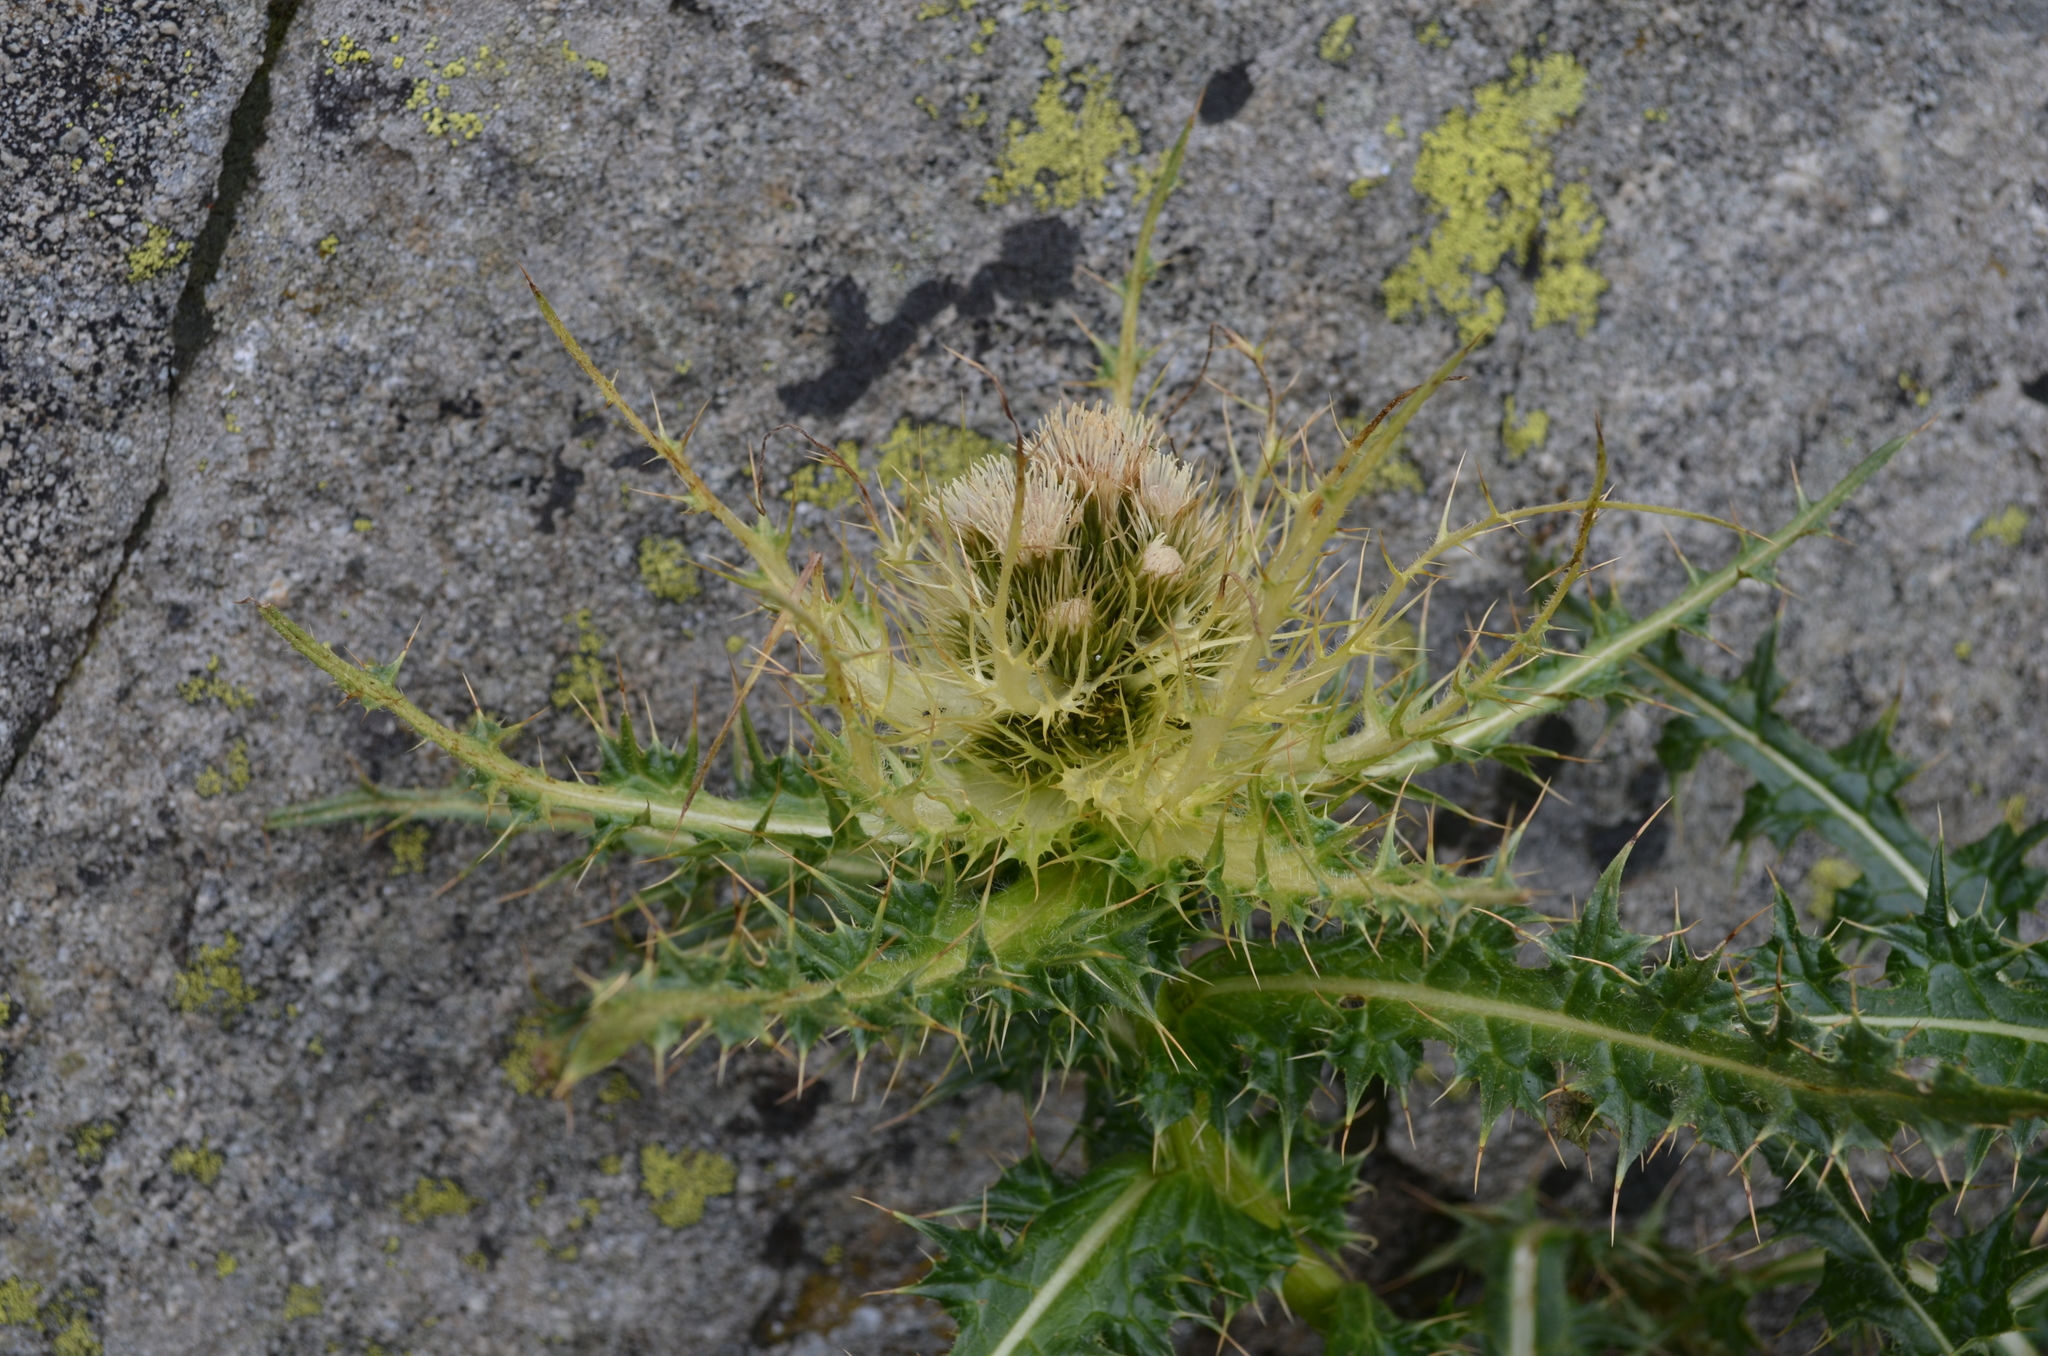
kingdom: Plantae
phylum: Tracheophyta
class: Magnoliopsida
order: Asterales
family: Asteraceae
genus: Cirsium
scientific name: Cirsium spinosissimum
